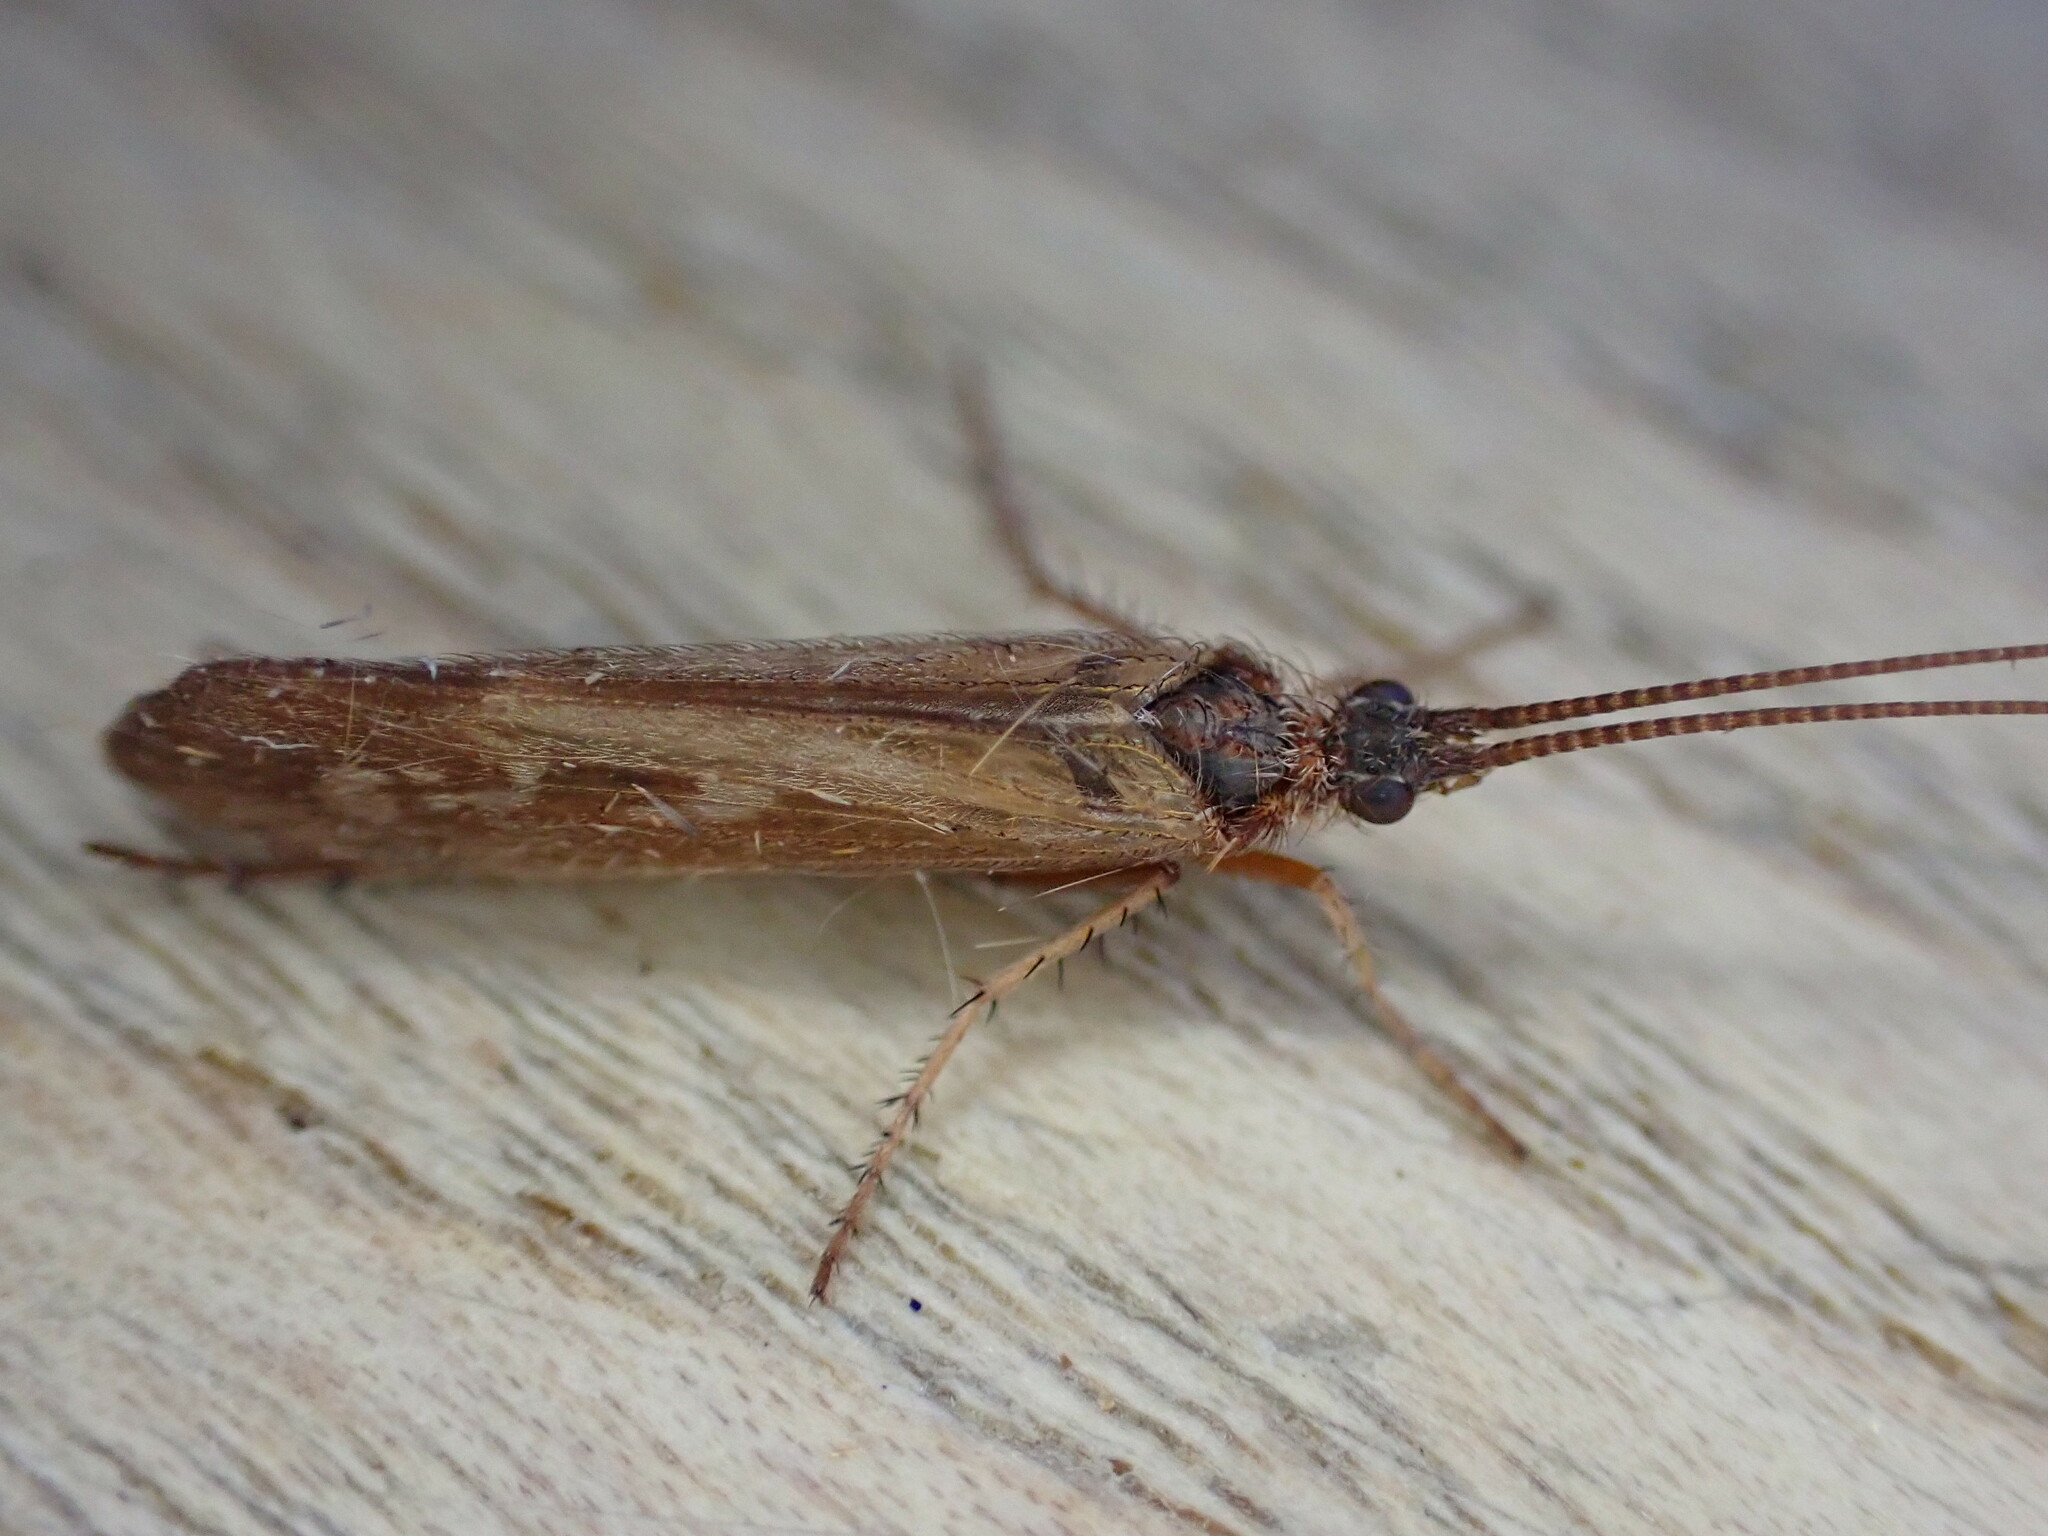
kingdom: Animalia
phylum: Arthropoda
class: Insecta
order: Trichoptera
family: Limnephilidae
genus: Limnephilus
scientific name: Limnephilus auricula
